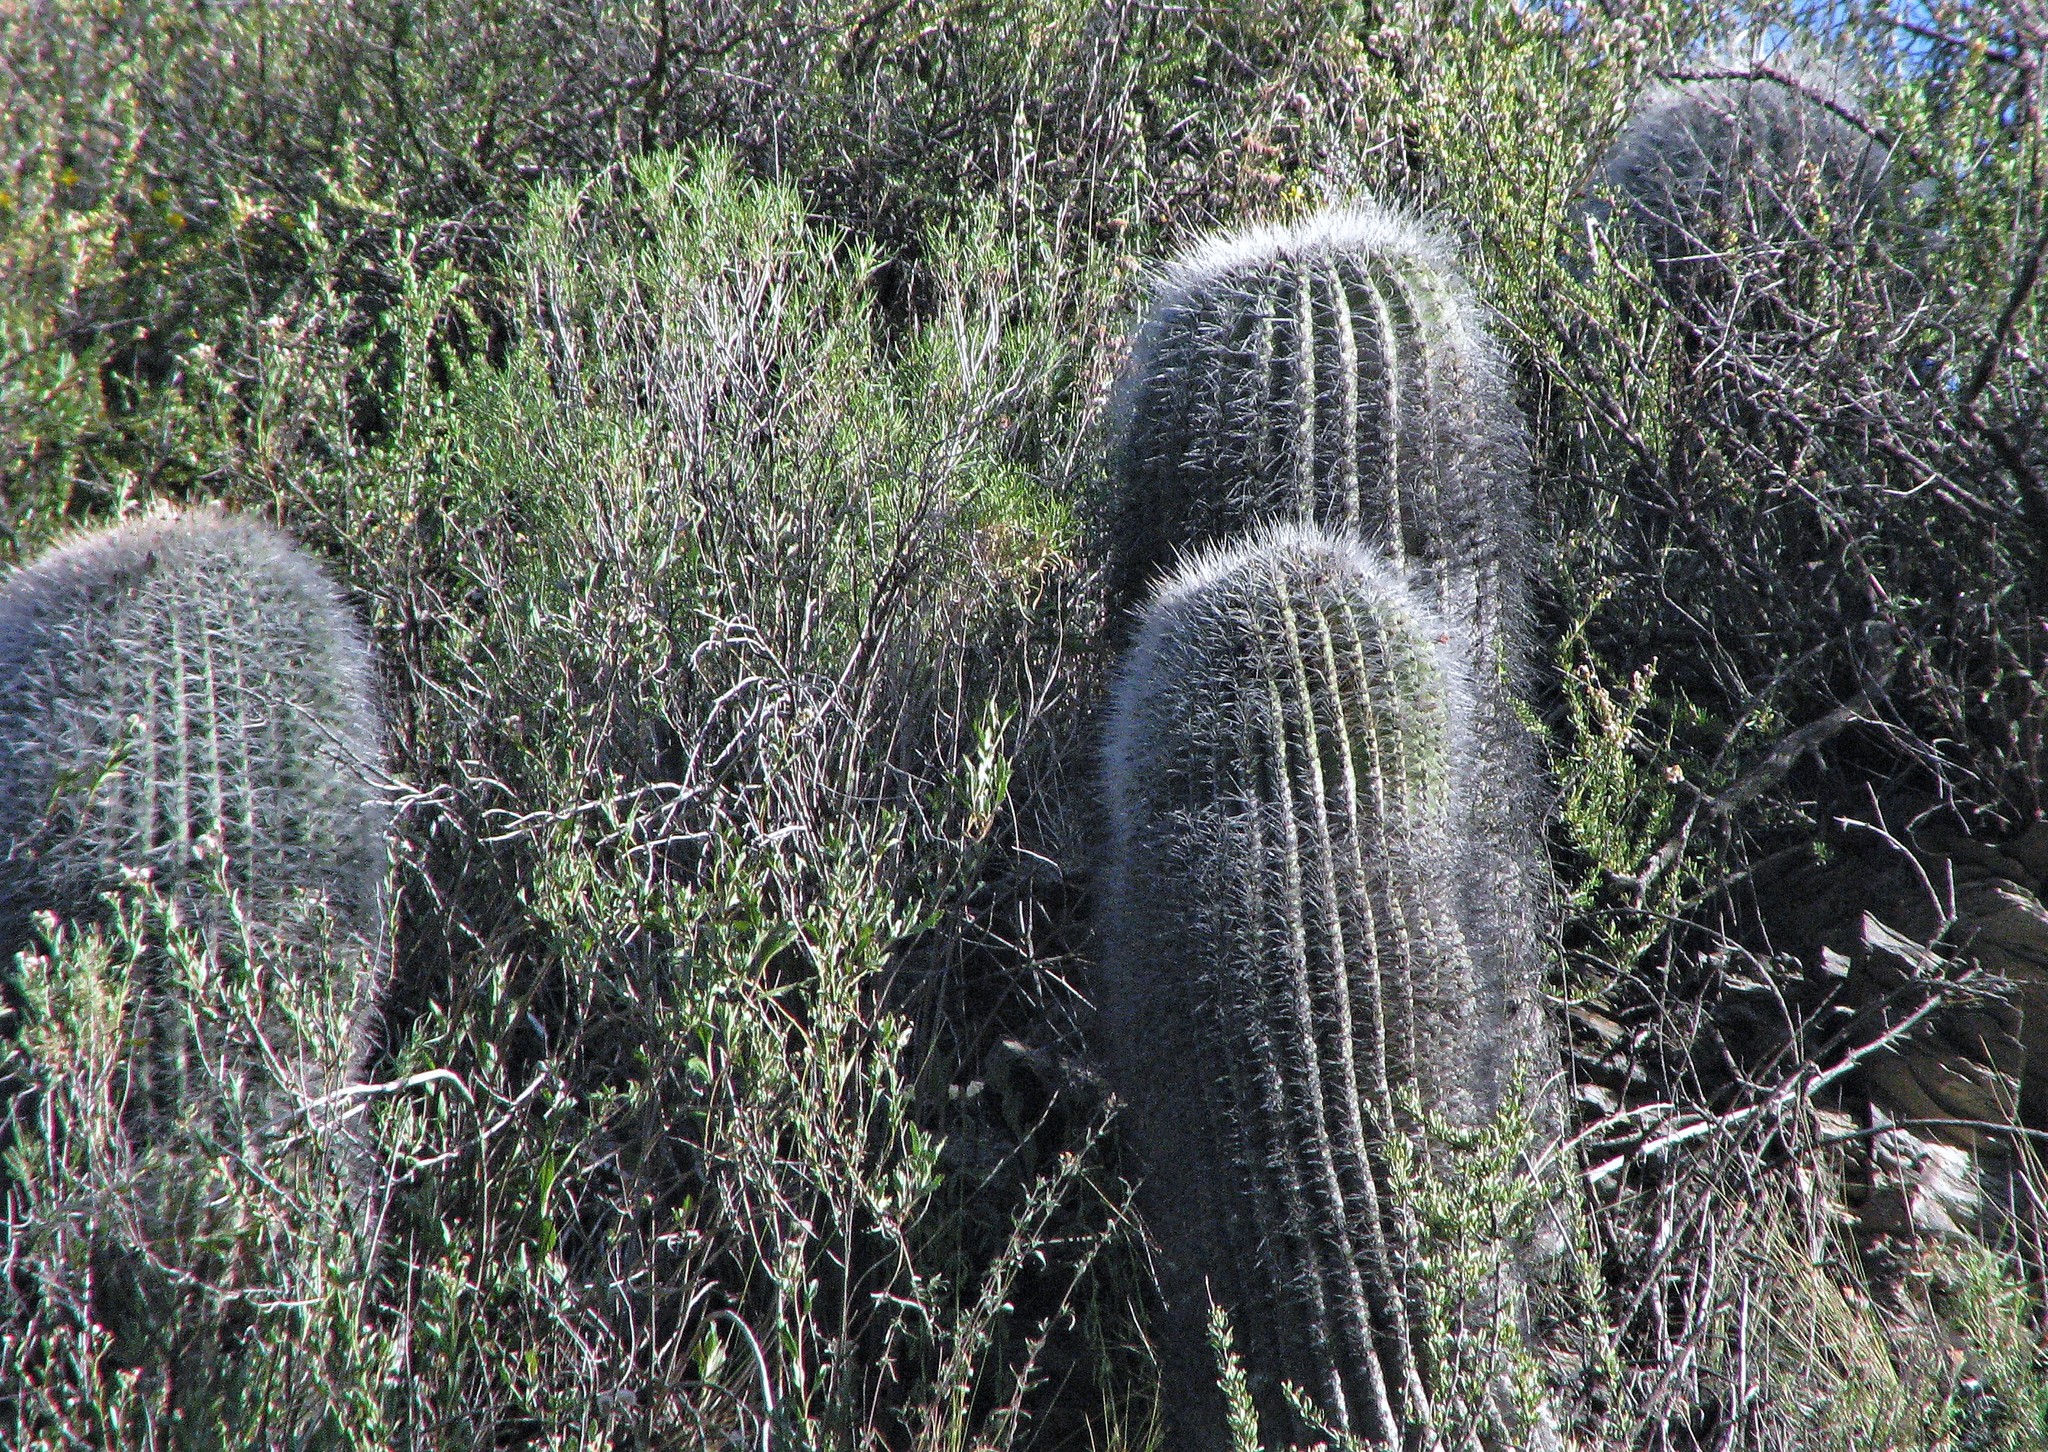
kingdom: Plantae
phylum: Tracheophyta
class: Magnoliopsida
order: Caryophyllales
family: Cactaceae
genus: Soehrensia
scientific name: Soehrensia formosa
